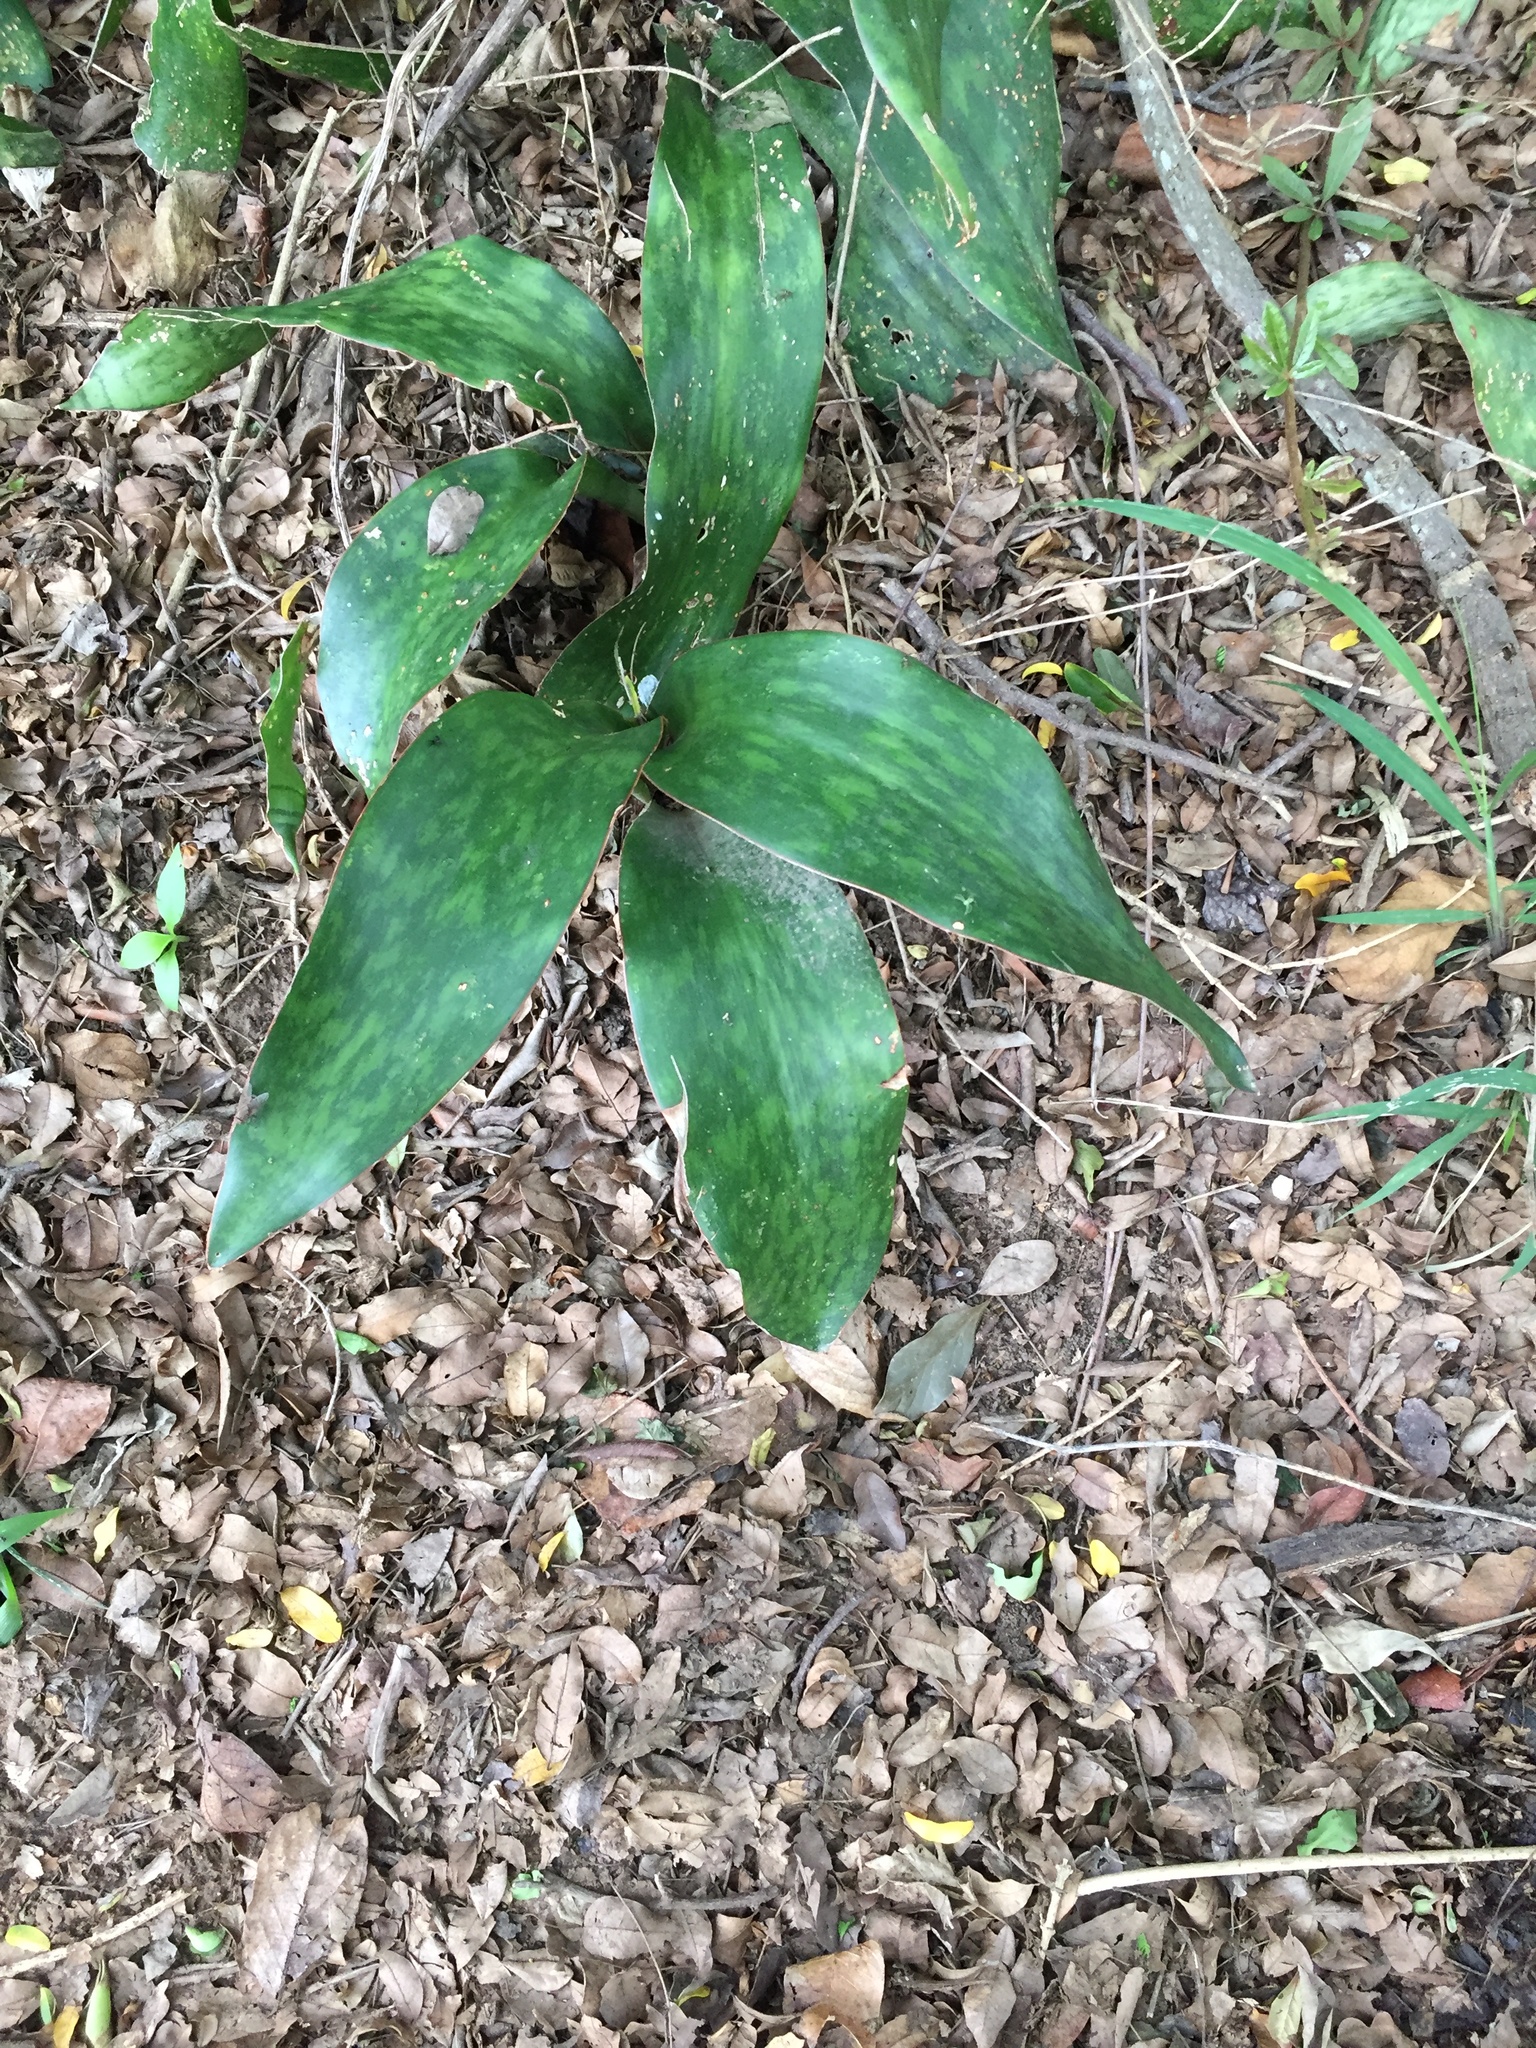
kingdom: Plantae
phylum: Tracheophyta
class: Liliopsida
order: Asparagales
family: Asparagaceae
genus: Dracaena
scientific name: Dracaena hyacinthoides
